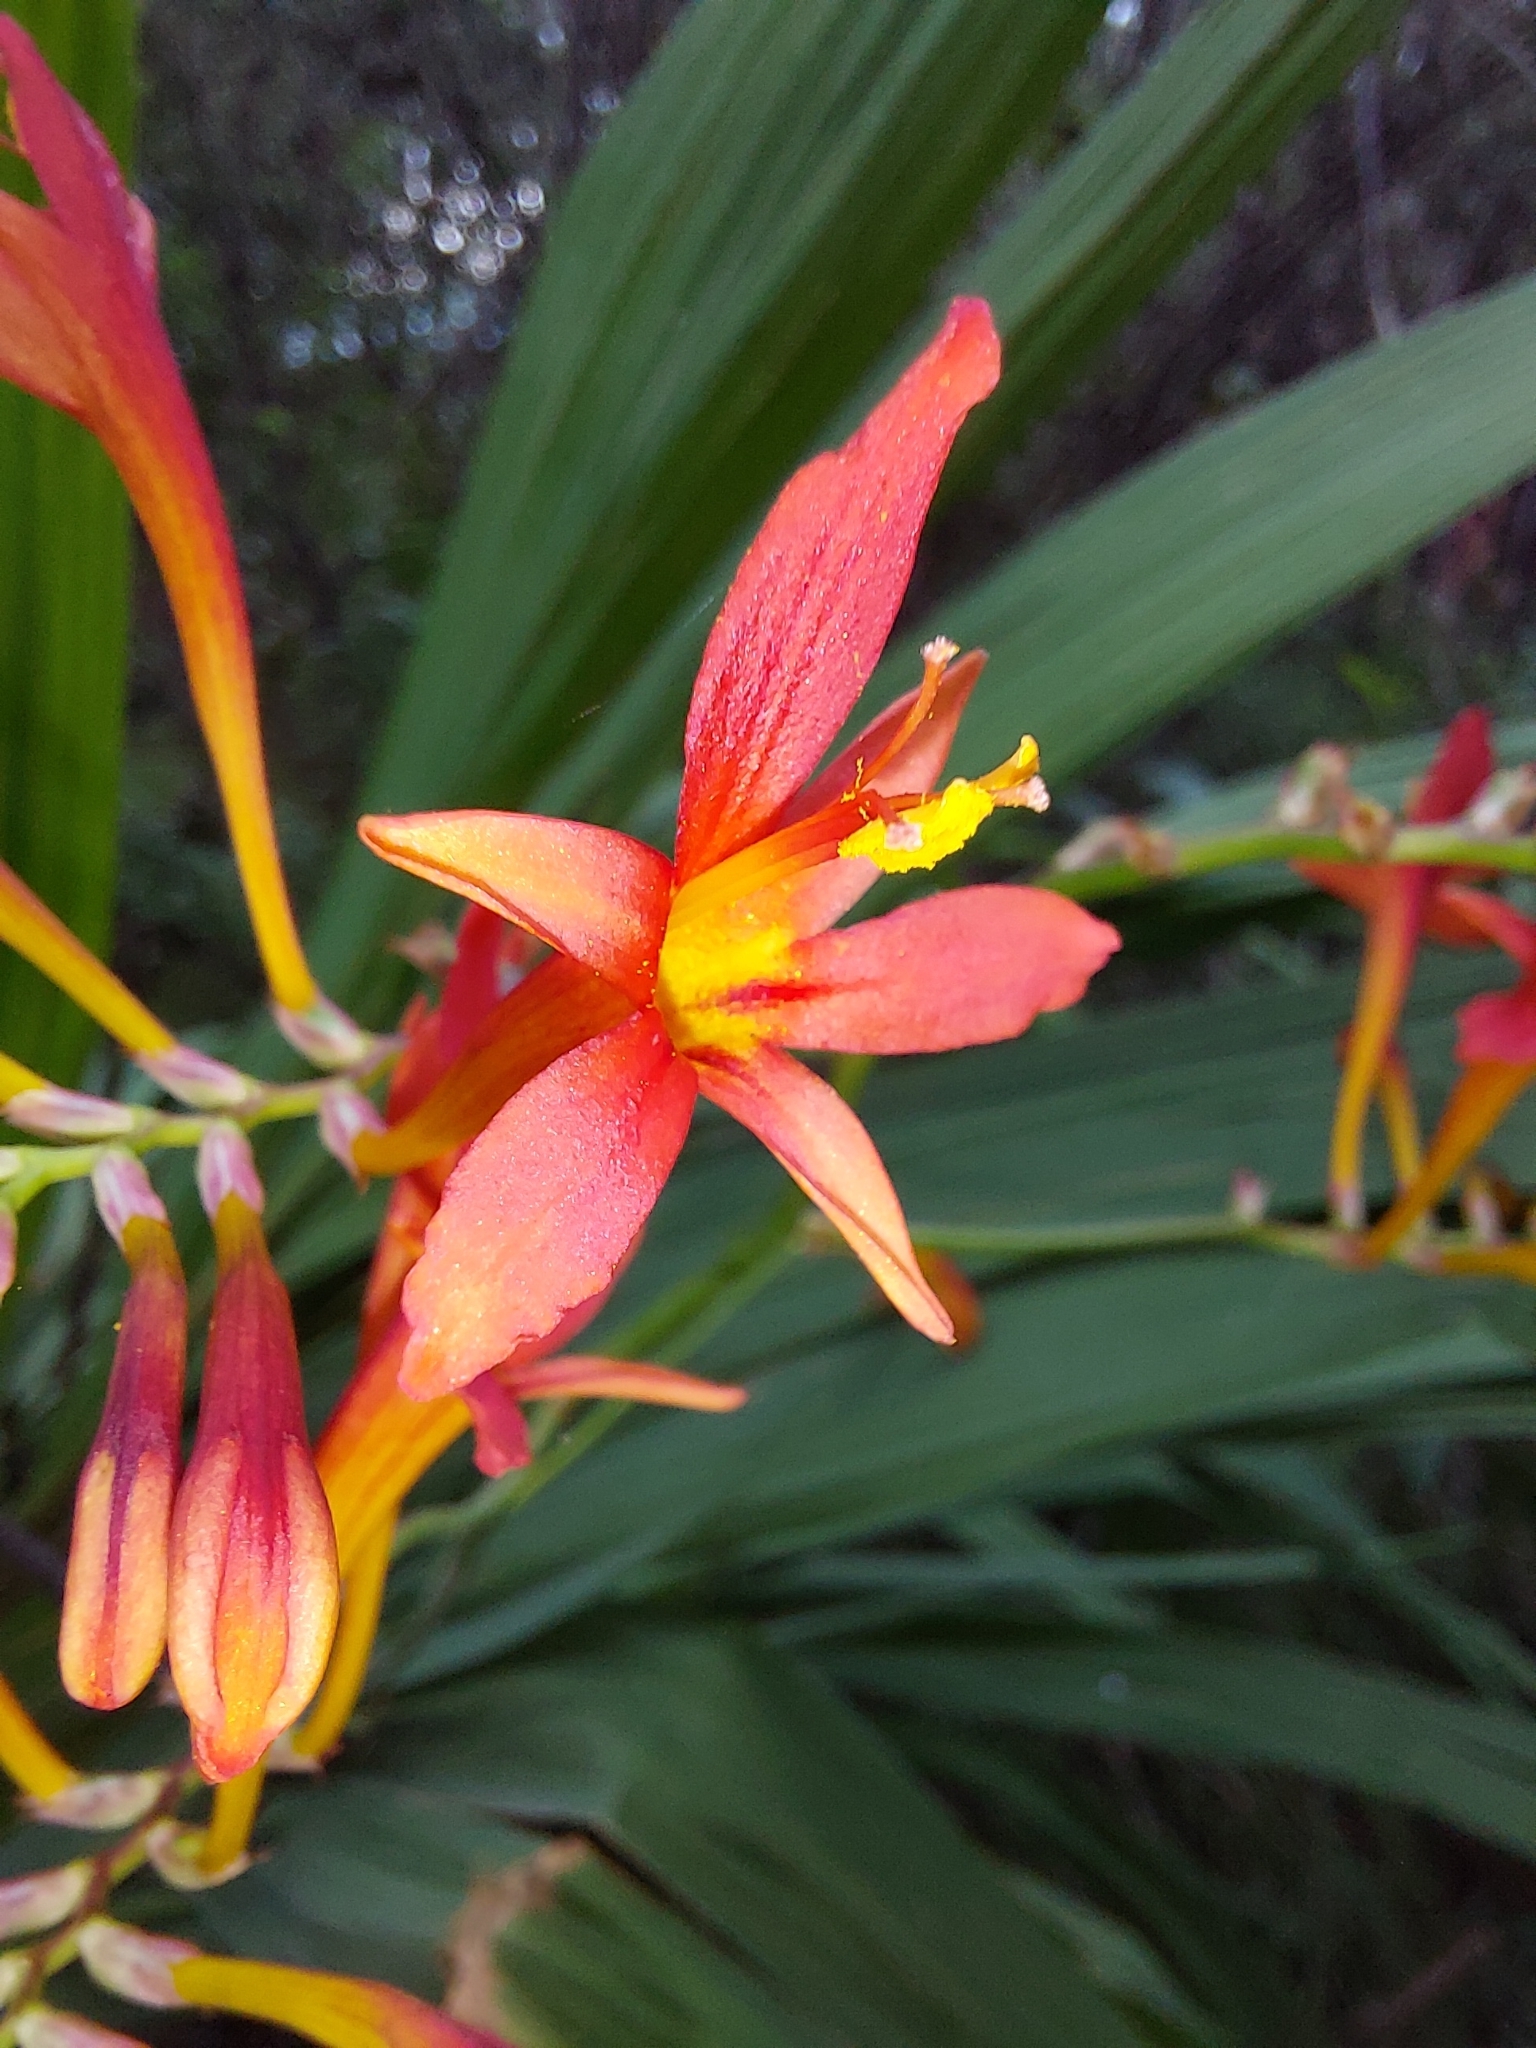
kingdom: Plantae
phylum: Tracheophyta
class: Liliopsida
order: Asparagales
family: Iridaceae
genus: Crocosmia
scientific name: Crocosmia paniculata
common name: Aunt eliza
